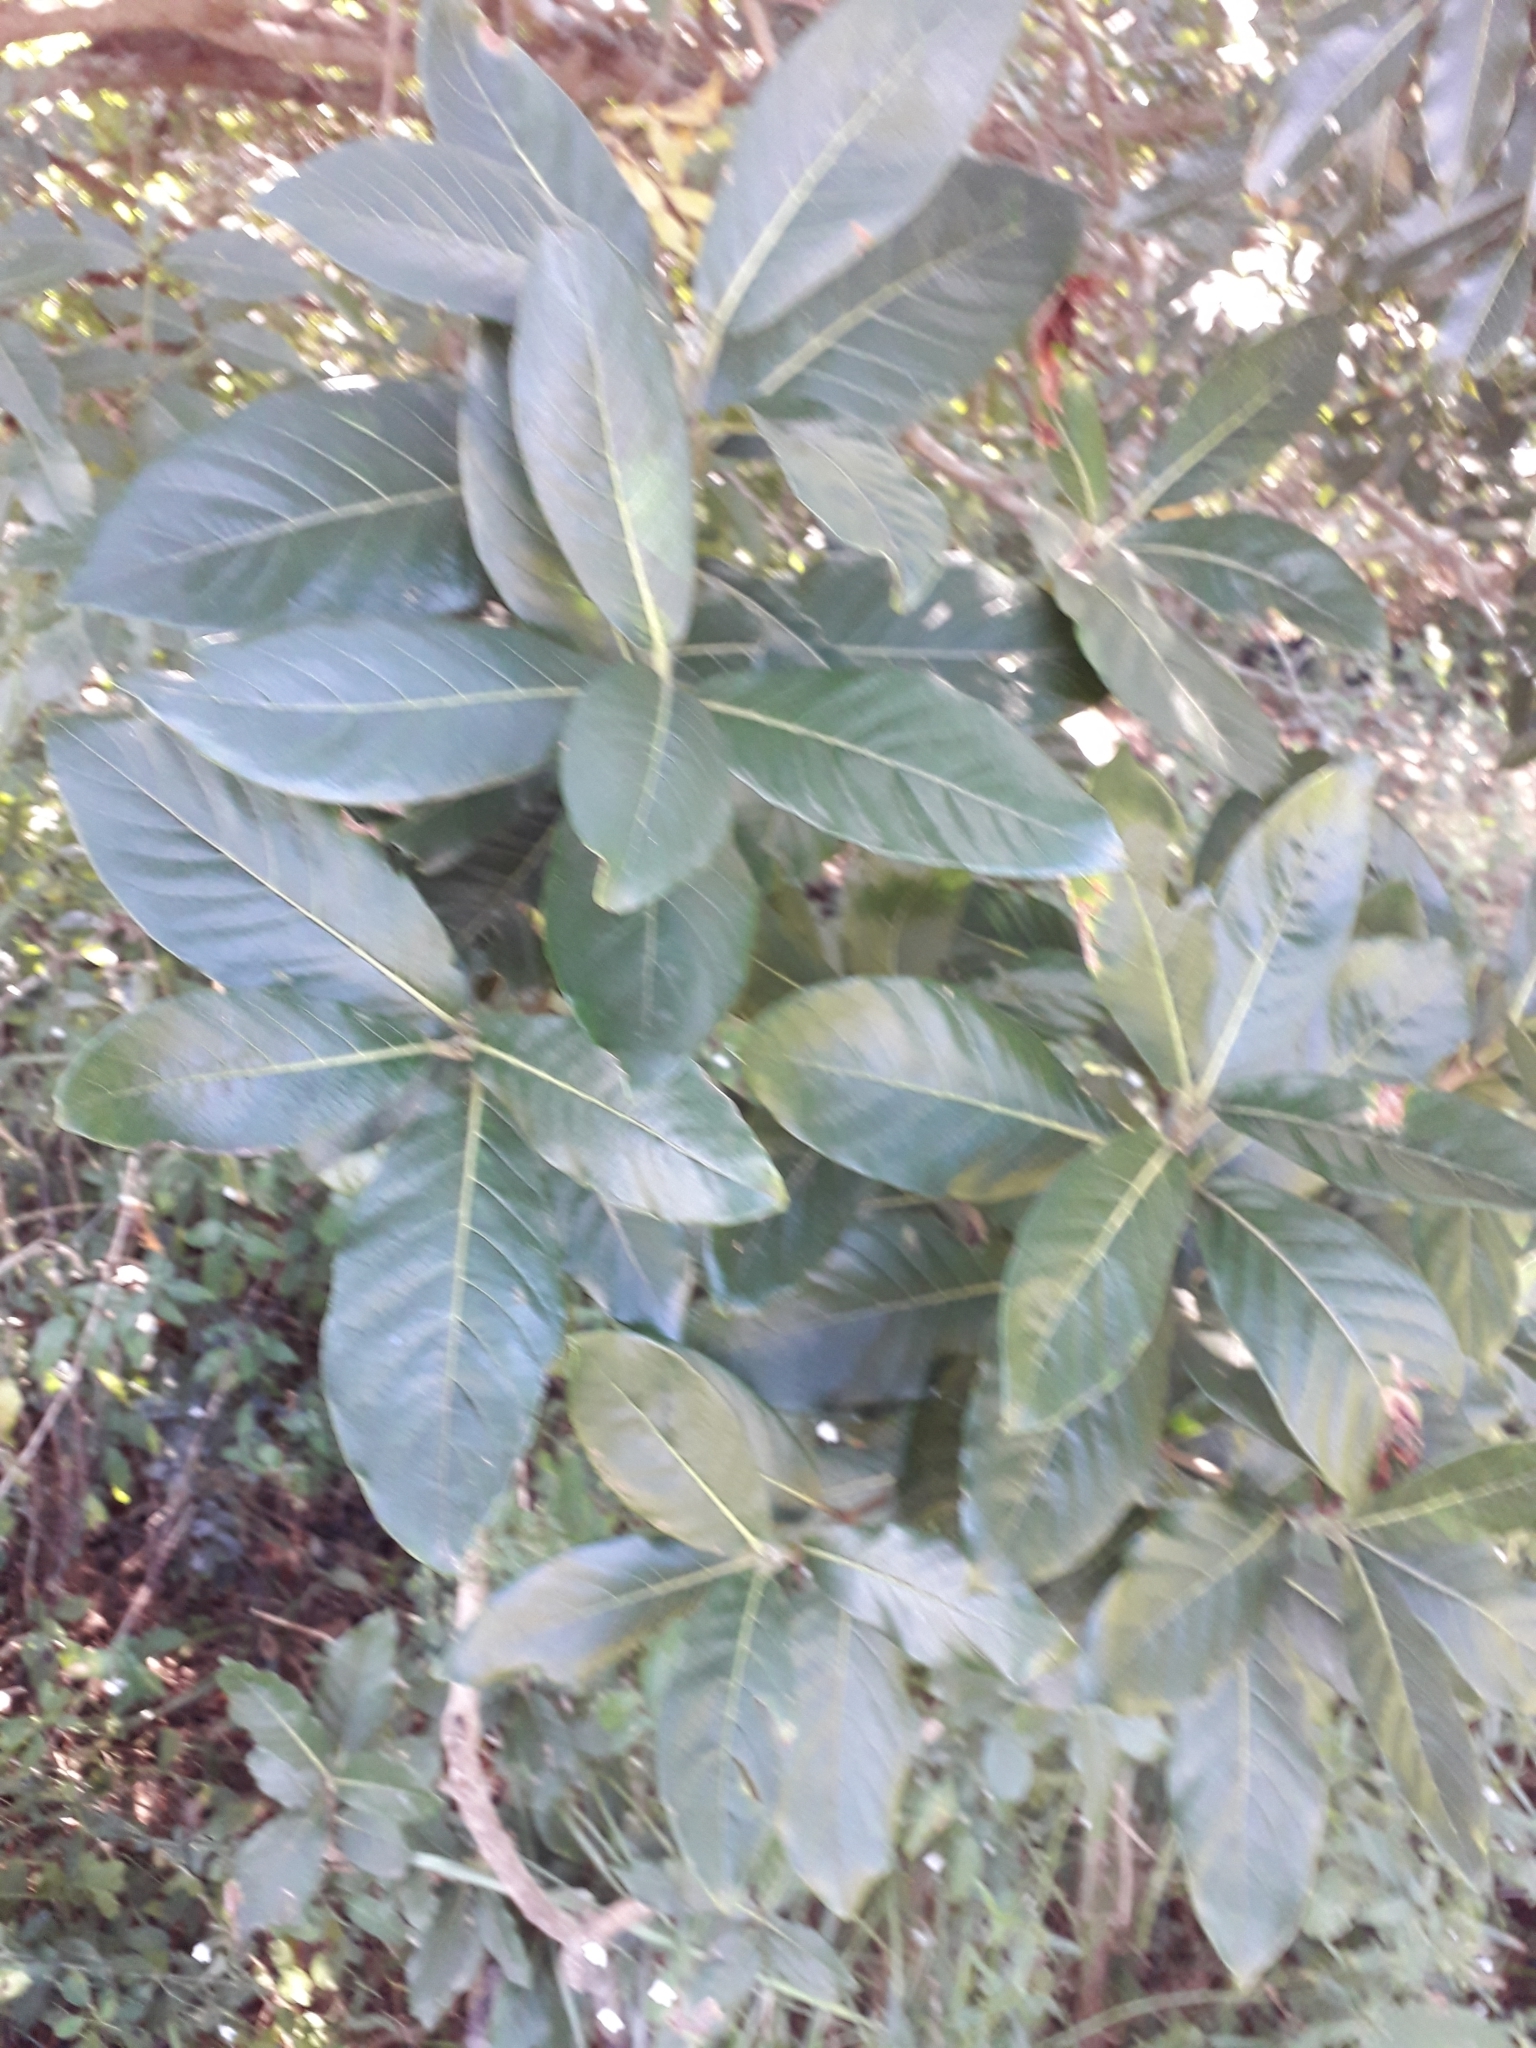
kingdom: Plantae
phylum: Tracheophyta
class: Magnoliopsida
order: Gentianales
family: Rubiaceae
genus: Burchellia
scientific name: Burchellia bubalina
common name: Wild pomegranate
